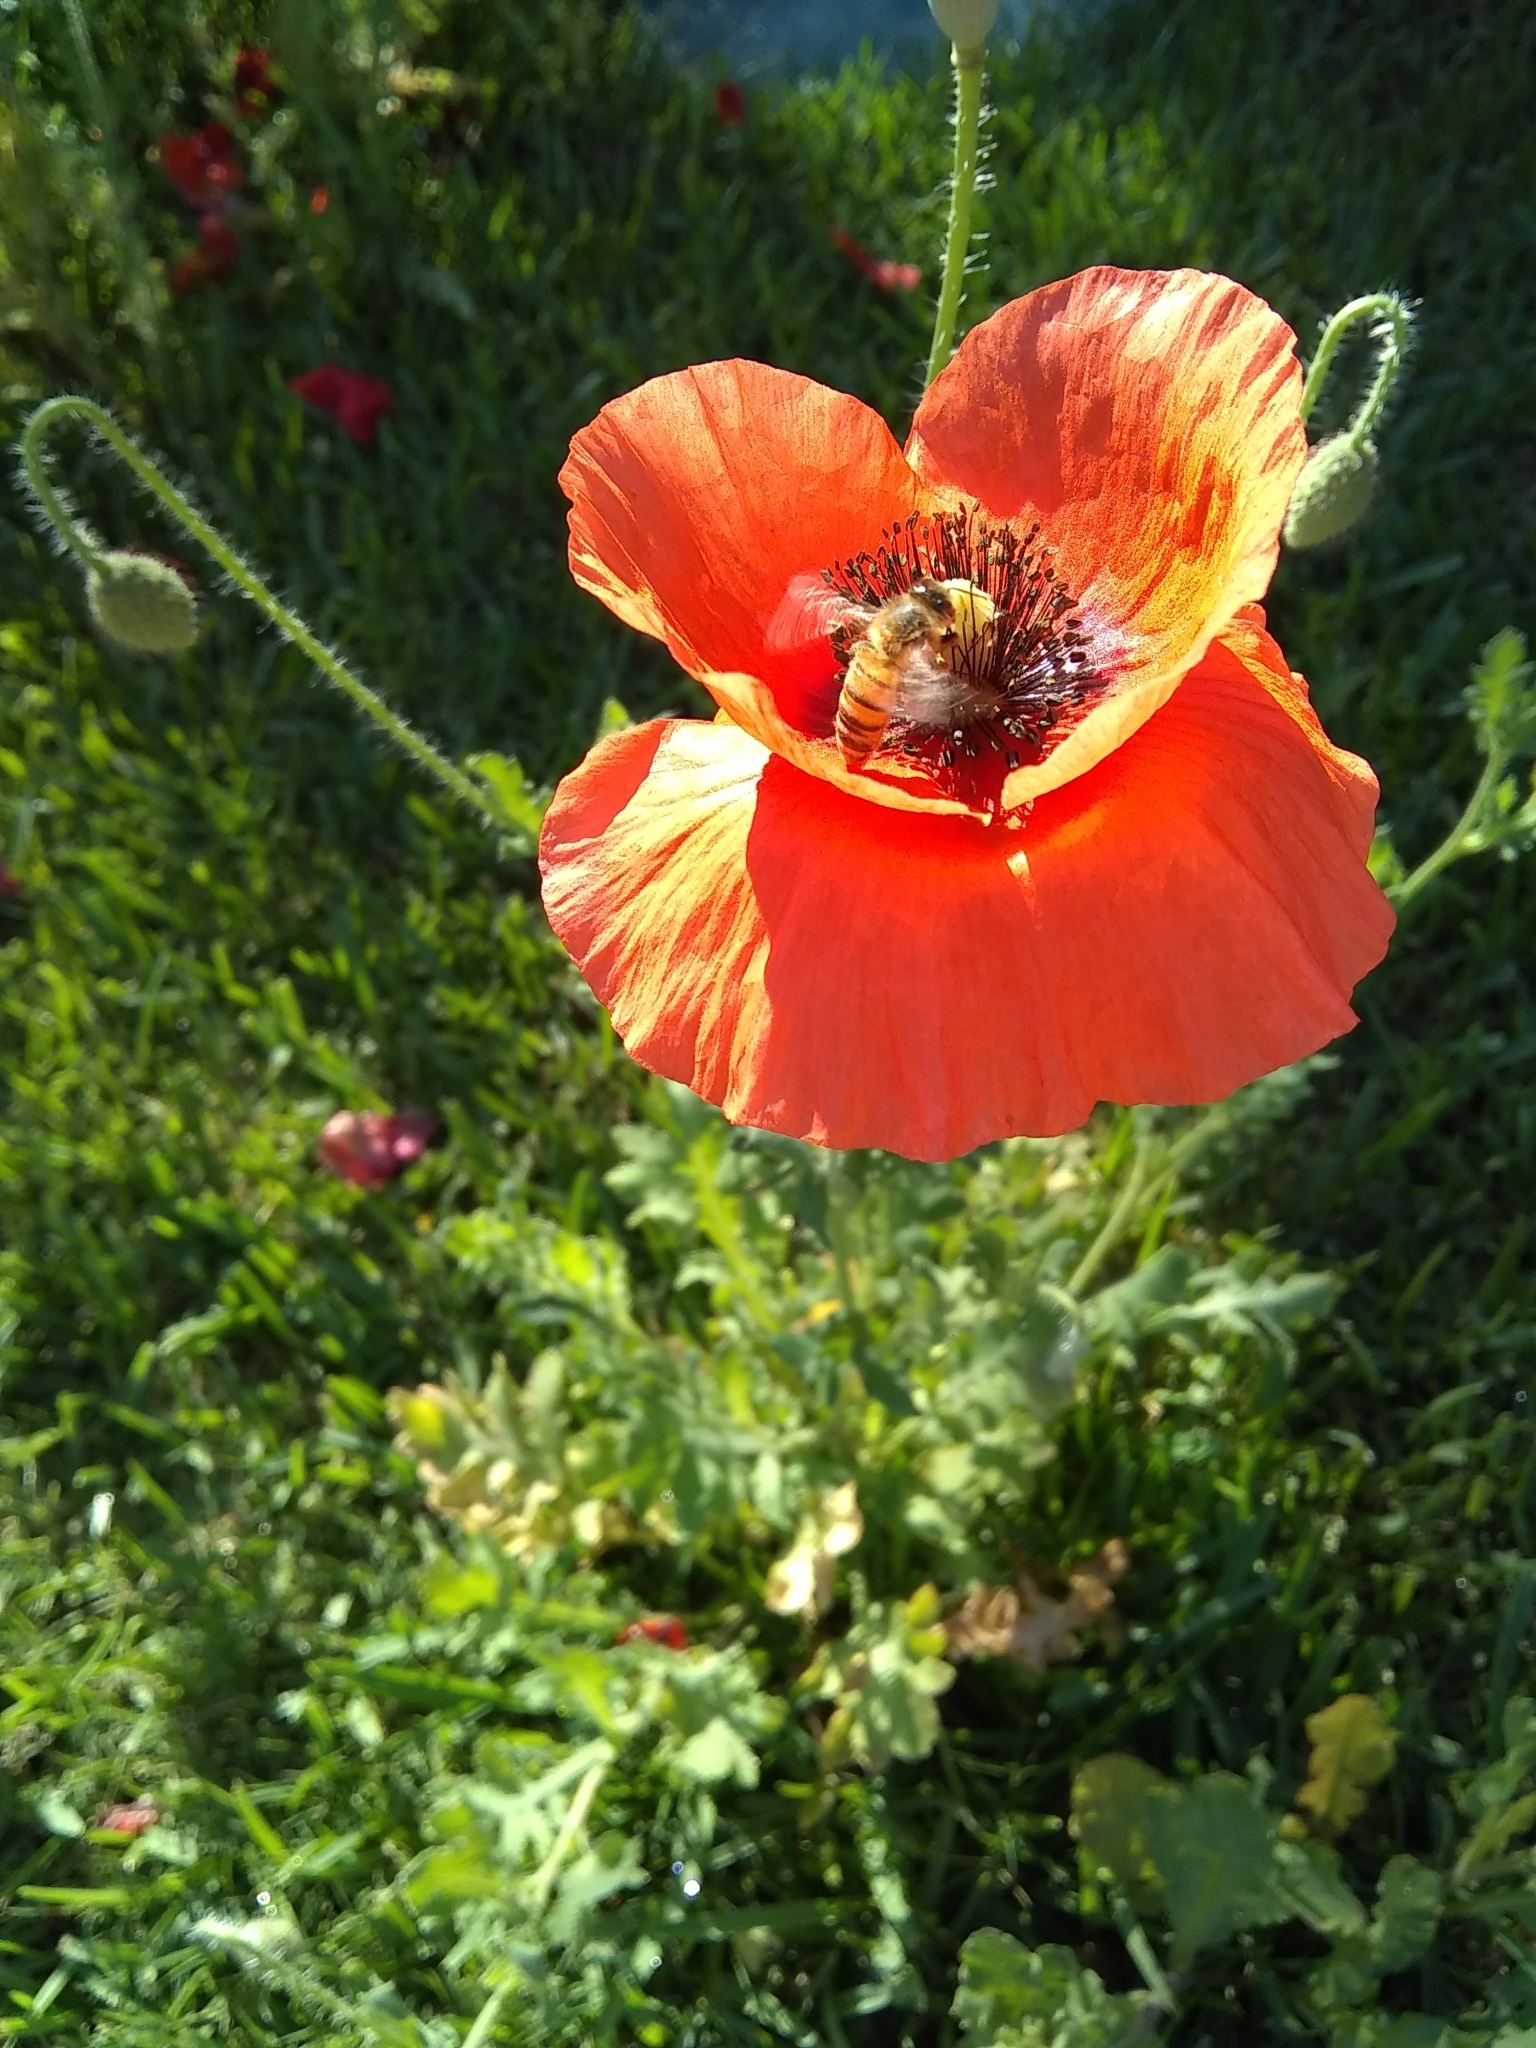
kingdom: Animalia
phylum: Arthropoda
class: Insecta
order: Hymenoptera
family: Apidae
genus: Apis
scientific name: Apis mellifera
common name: Honey bee
